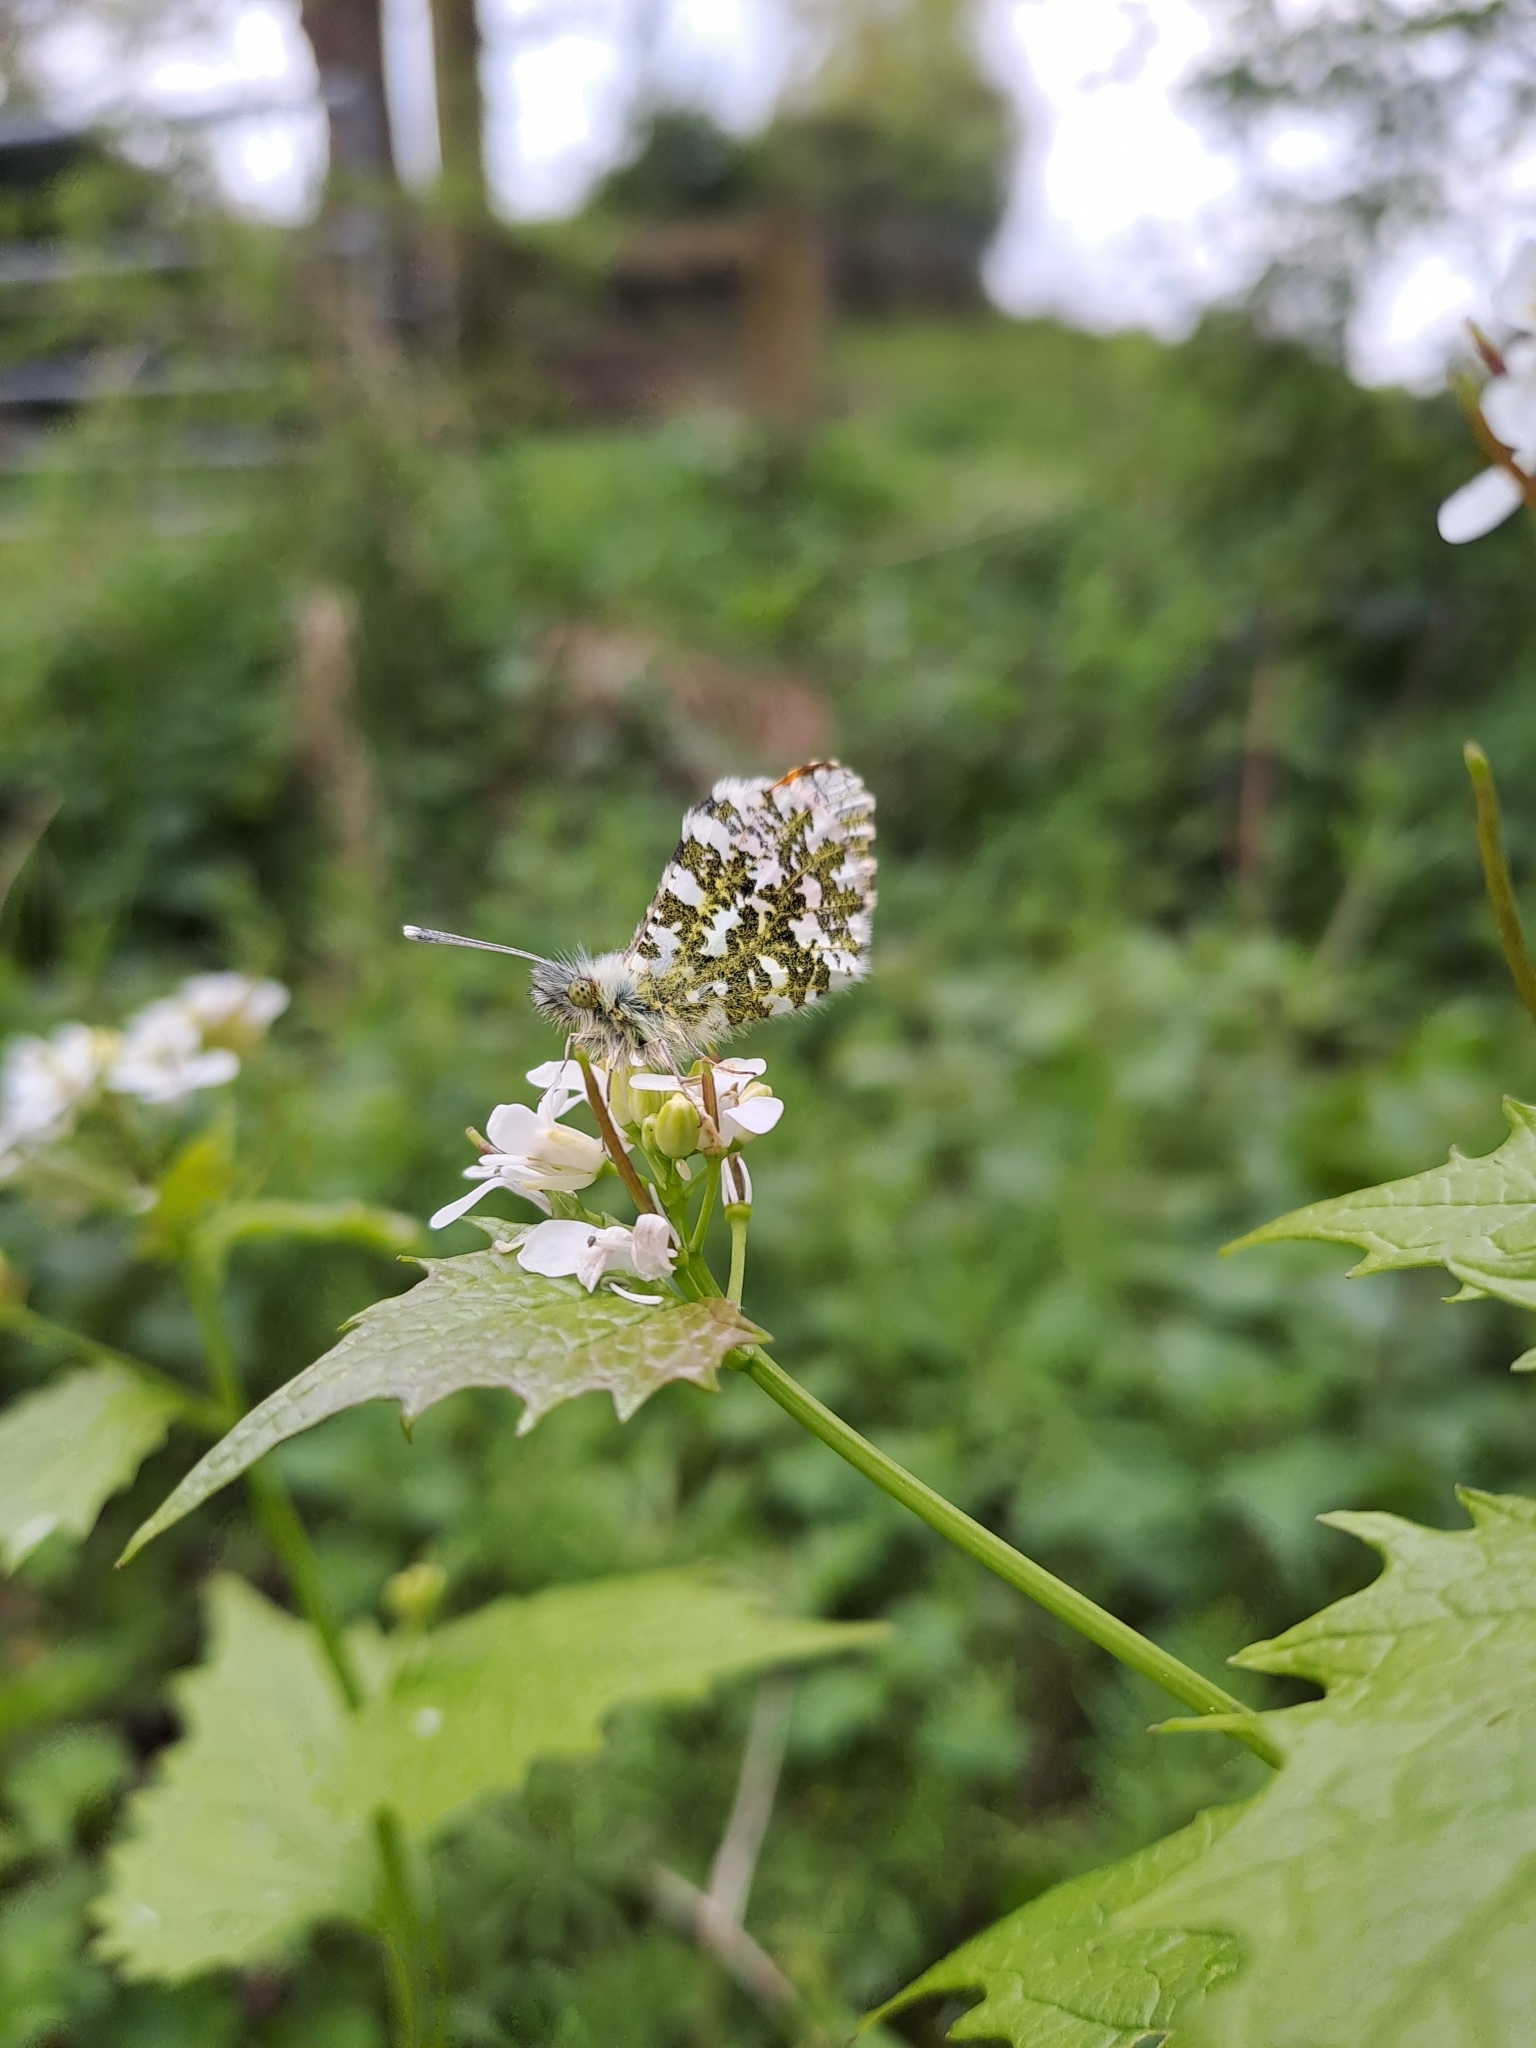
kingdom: Animalia
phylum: Arthropoda
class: Insecta
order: Lepidoptera
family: Pieridae
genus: Anthocharis
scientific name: Anthocharis cardamines
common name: Orange-tip
